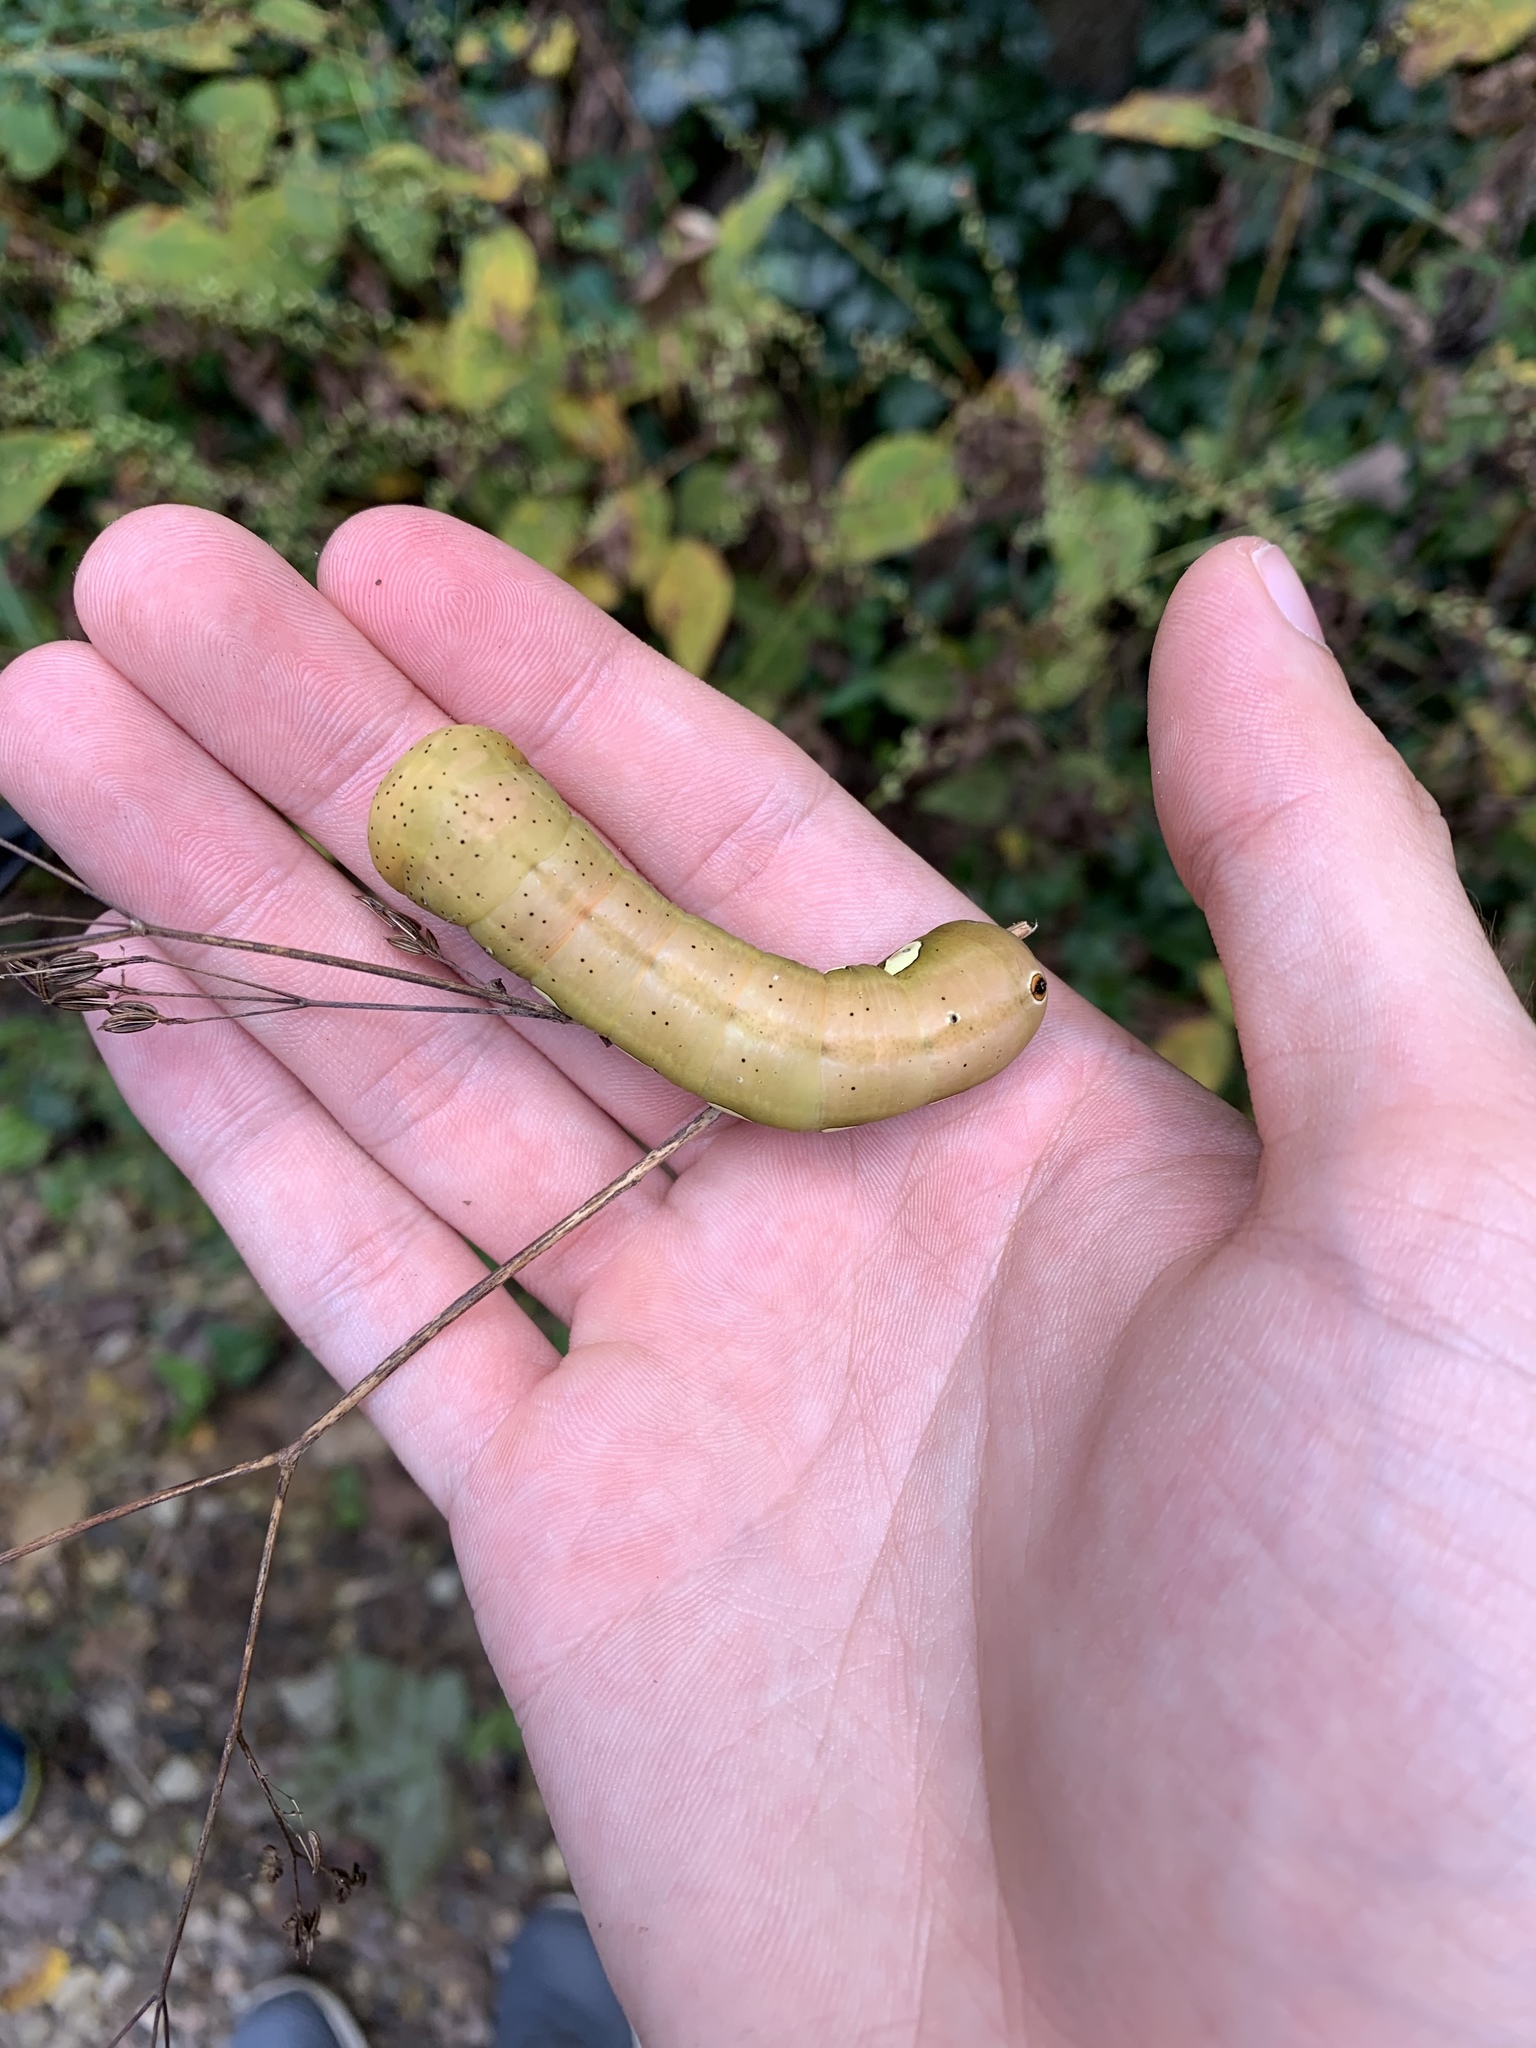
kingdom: Animalia
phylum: Arthropoda
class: Insecta
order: Lepidoptera
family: Sphingidae
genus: Eumorpha
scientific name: Eumorpha pandorus
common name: Pandora sphinx
